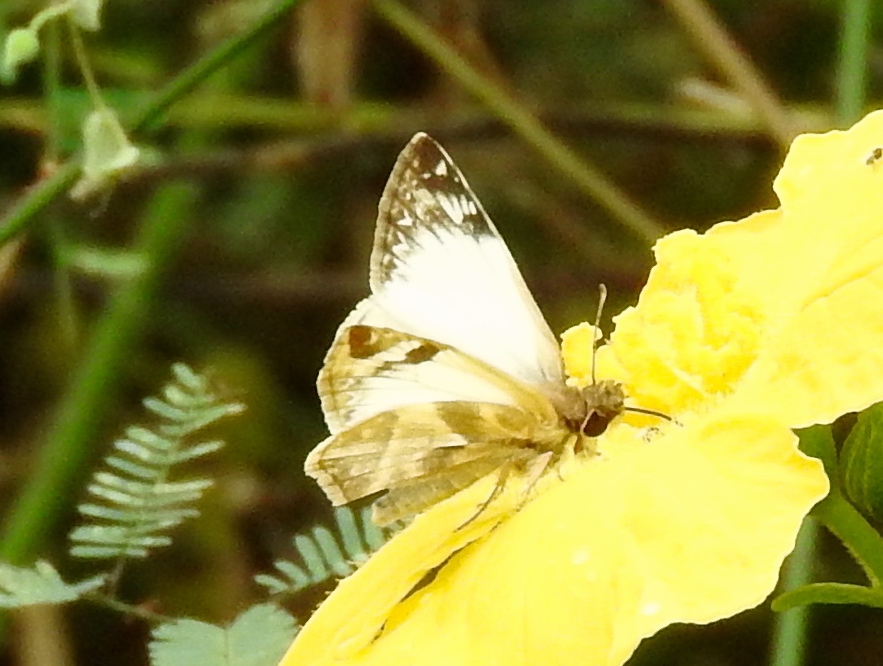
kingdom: Animalia
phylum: Arthropoda
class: Insecta
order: Lepidoptera
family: Hesperiidae
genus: Heliopetes
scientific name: Heliopetes laviana
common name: Laviana white-skipper
